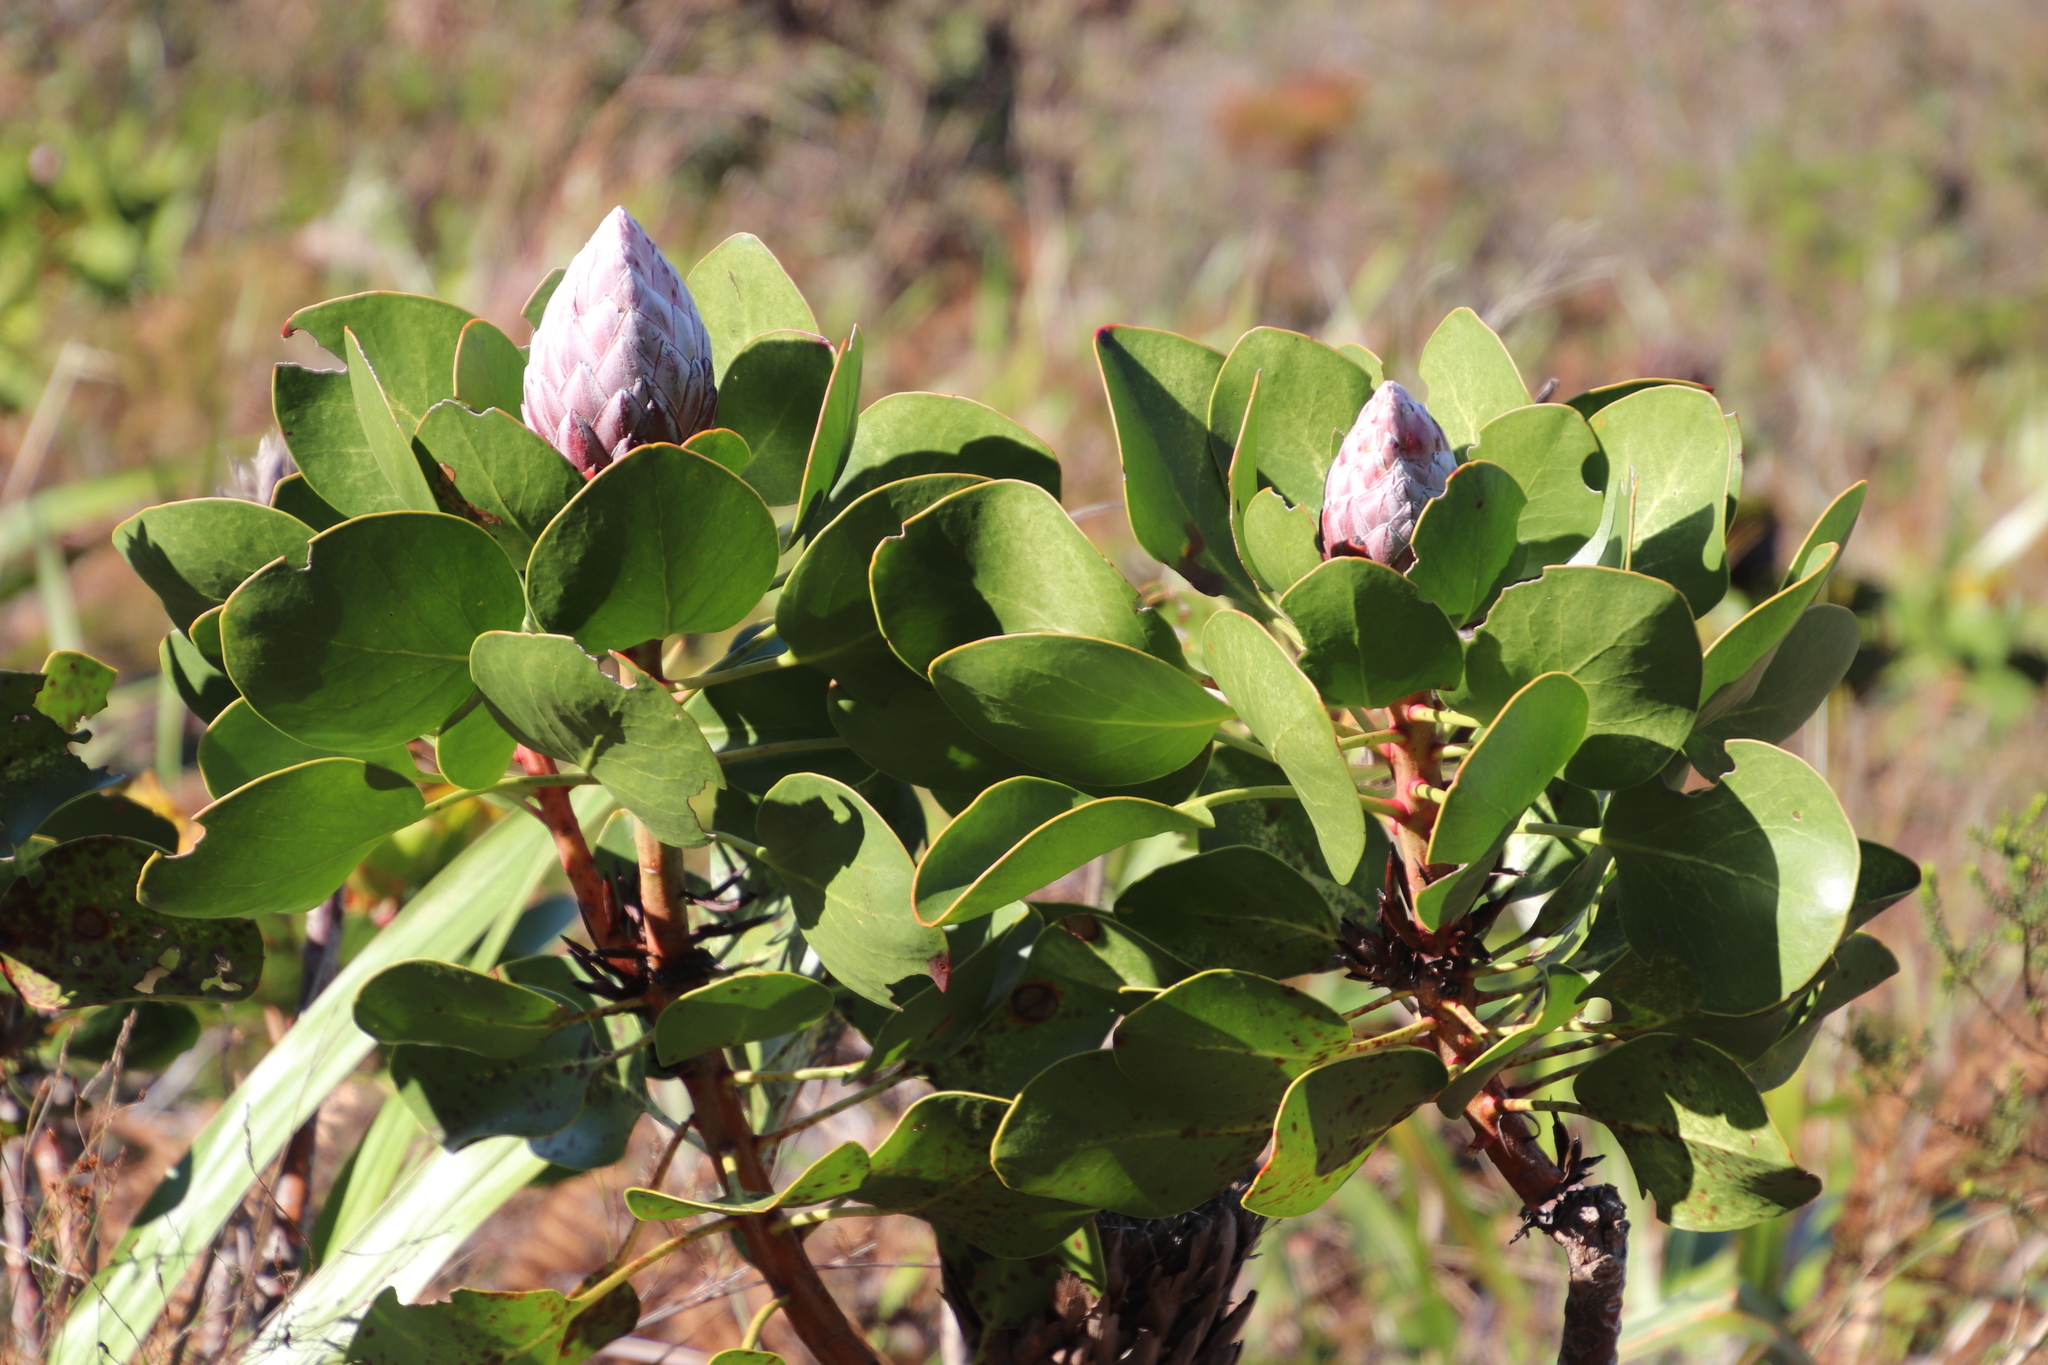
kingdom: Plantae
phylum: Tracheophyta
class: Magnoliopsida
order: Proteales
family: Proteaceae
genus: Protea
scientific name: Protea cynaroides
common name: King protea
